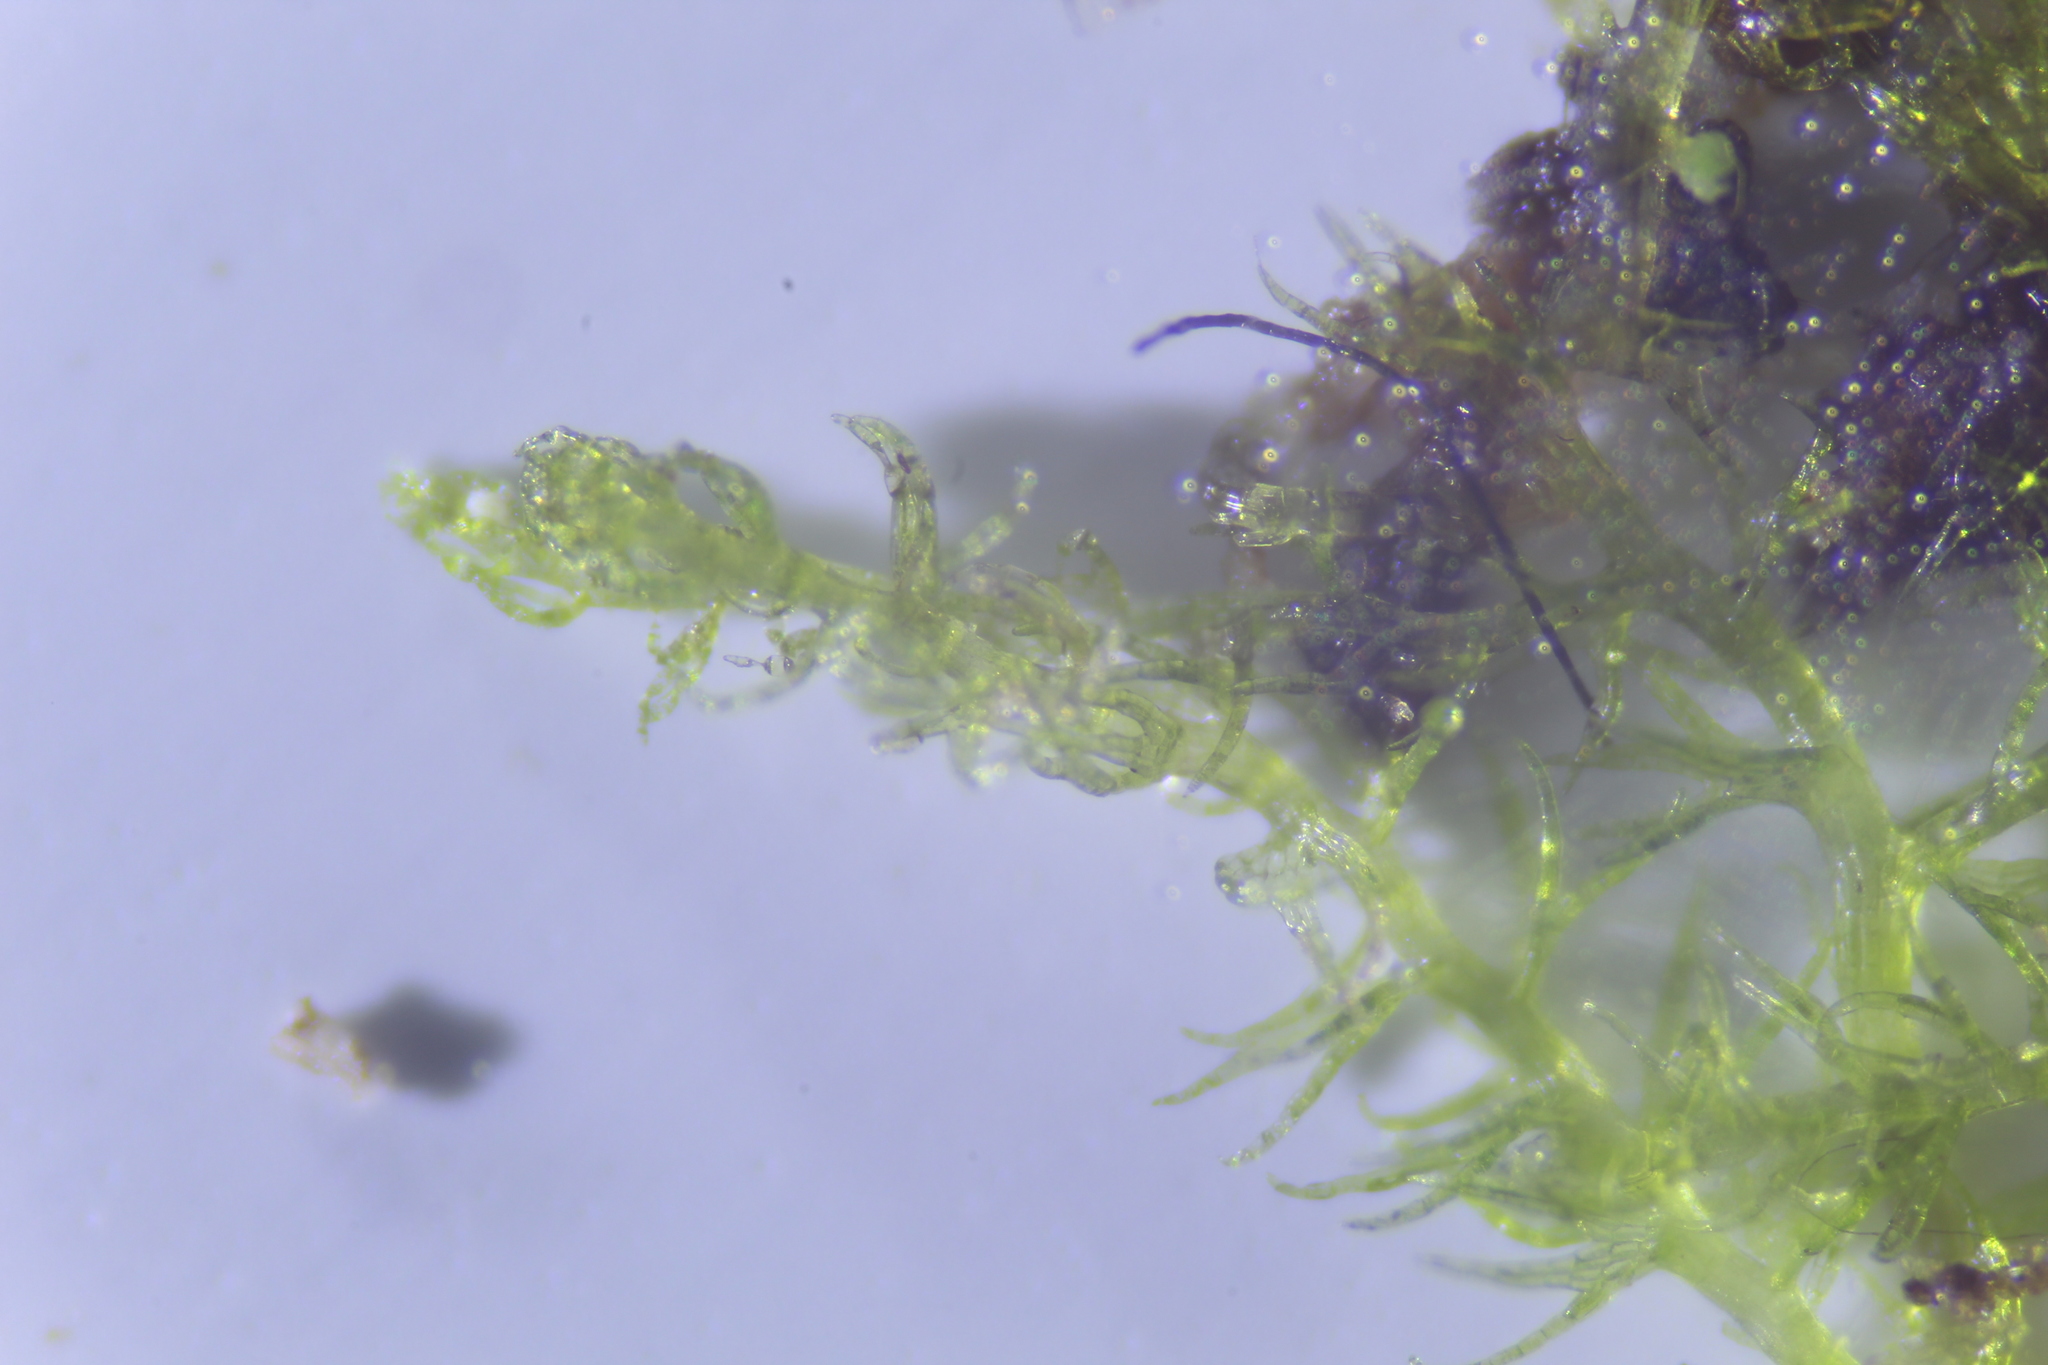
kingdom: Plantae
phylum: Marchantiophyta
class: Jungermanniopsida
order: Jungermanniales
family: Lepidoziaceae
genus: Paracromastigum
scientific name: Paracromastigum longiscyphum
